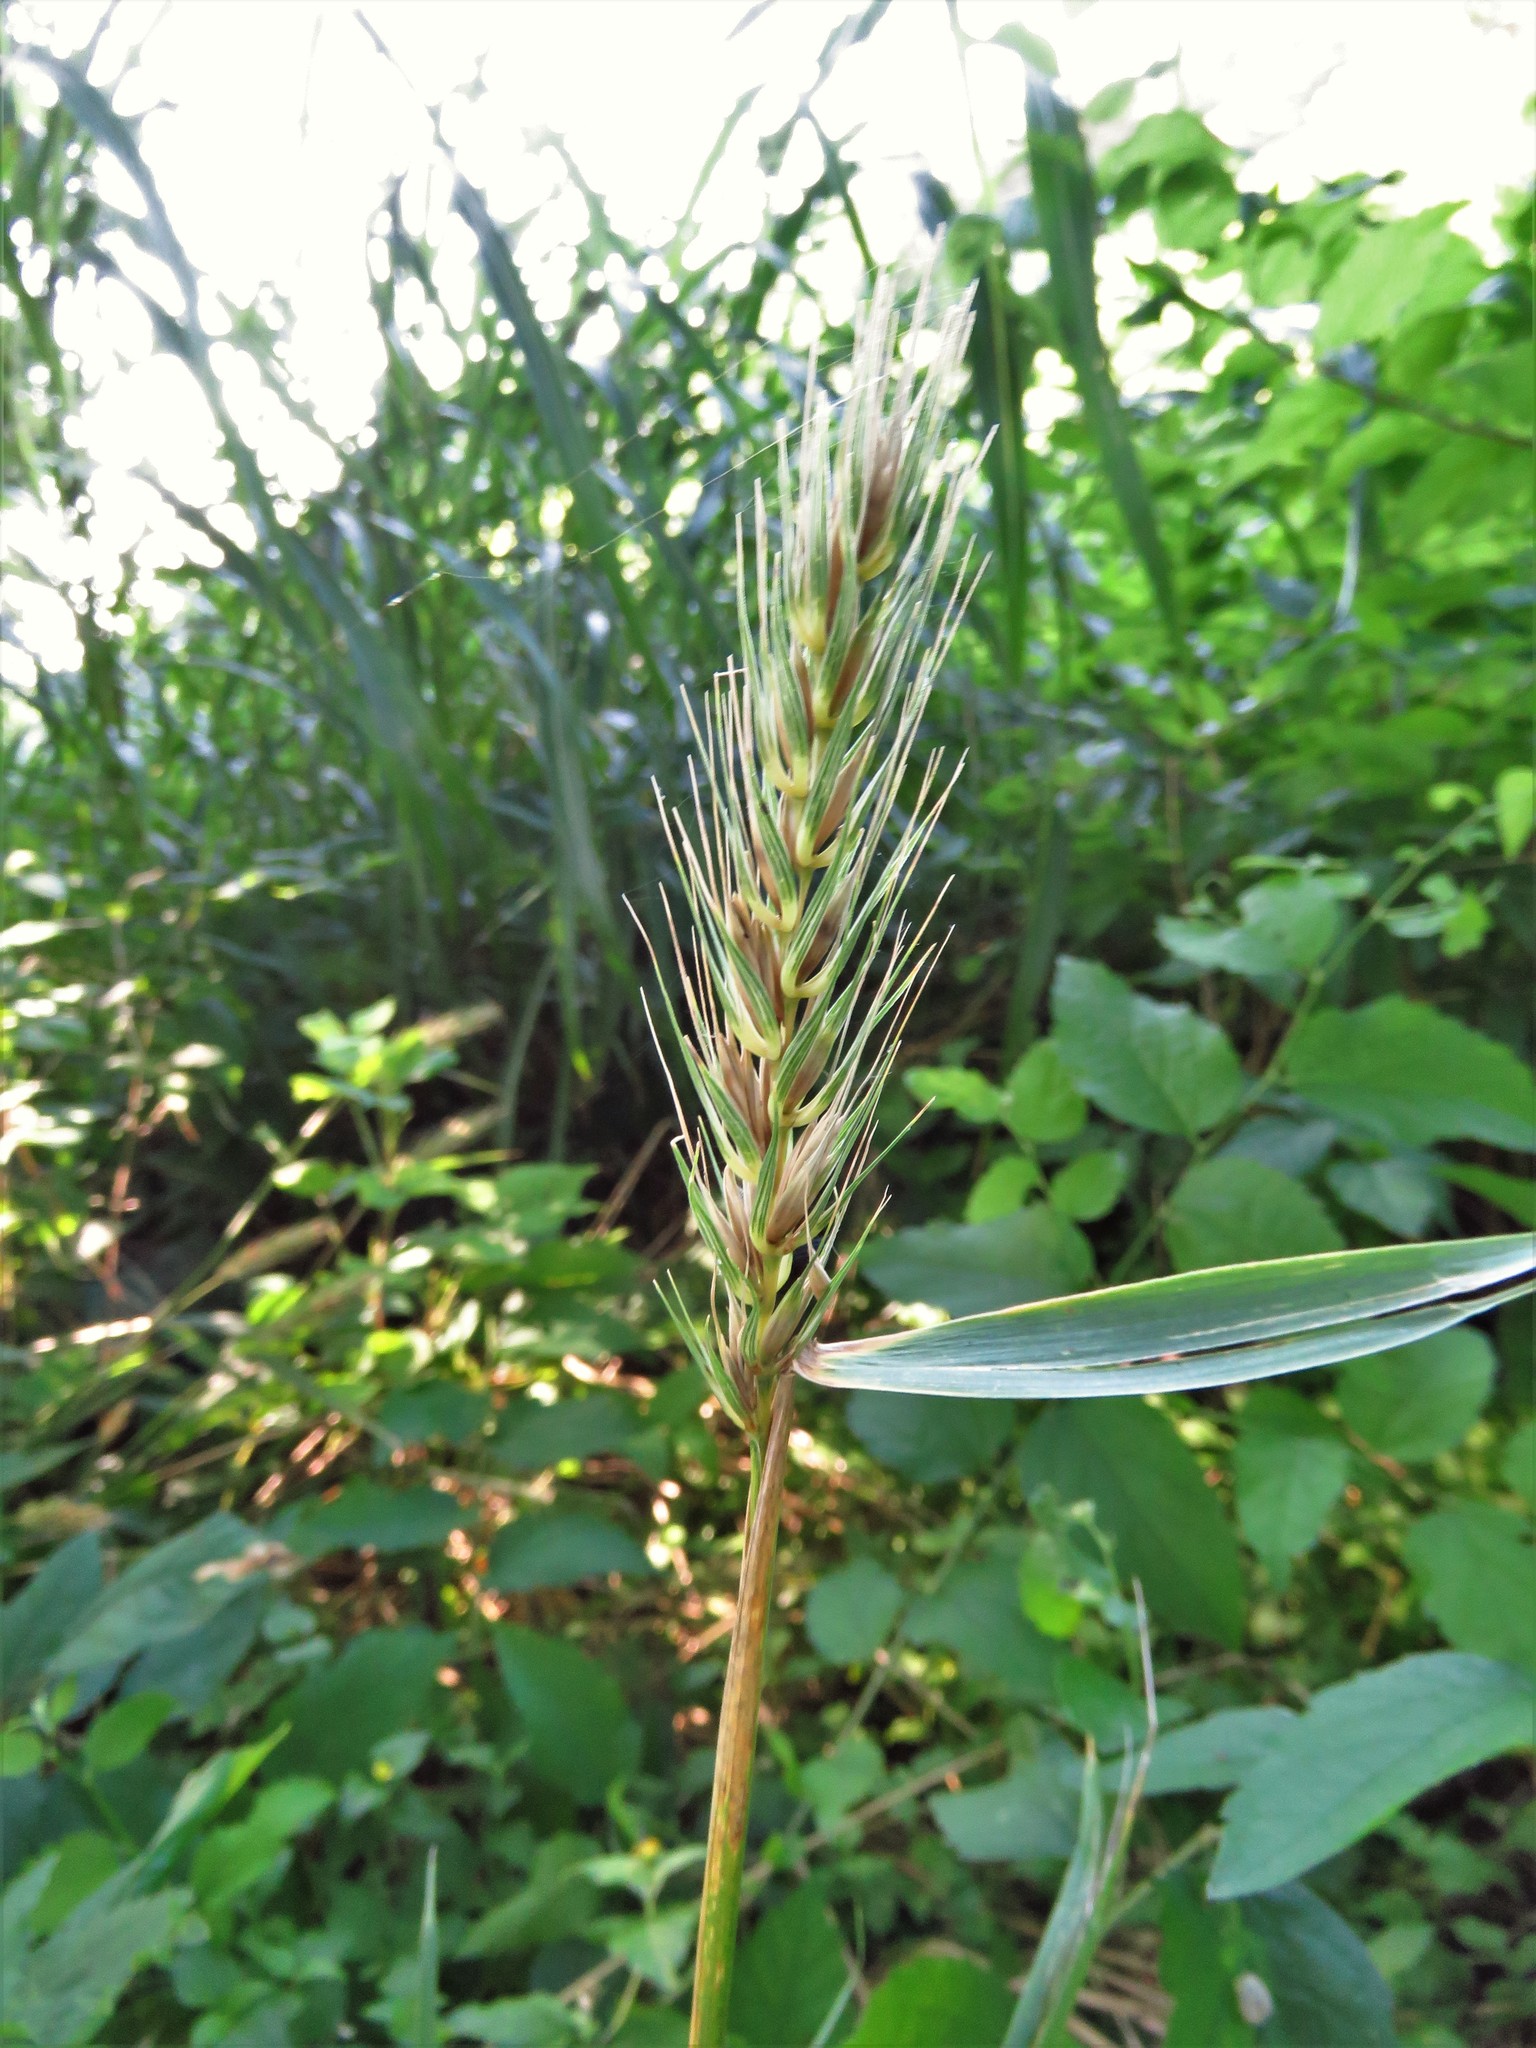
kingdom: Plantae
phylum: Tracheophyta
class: Liliopsida
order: Poales
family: Poaceae
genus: Elymus
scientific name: Elymus virginicus
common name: Common eastern wildrye
